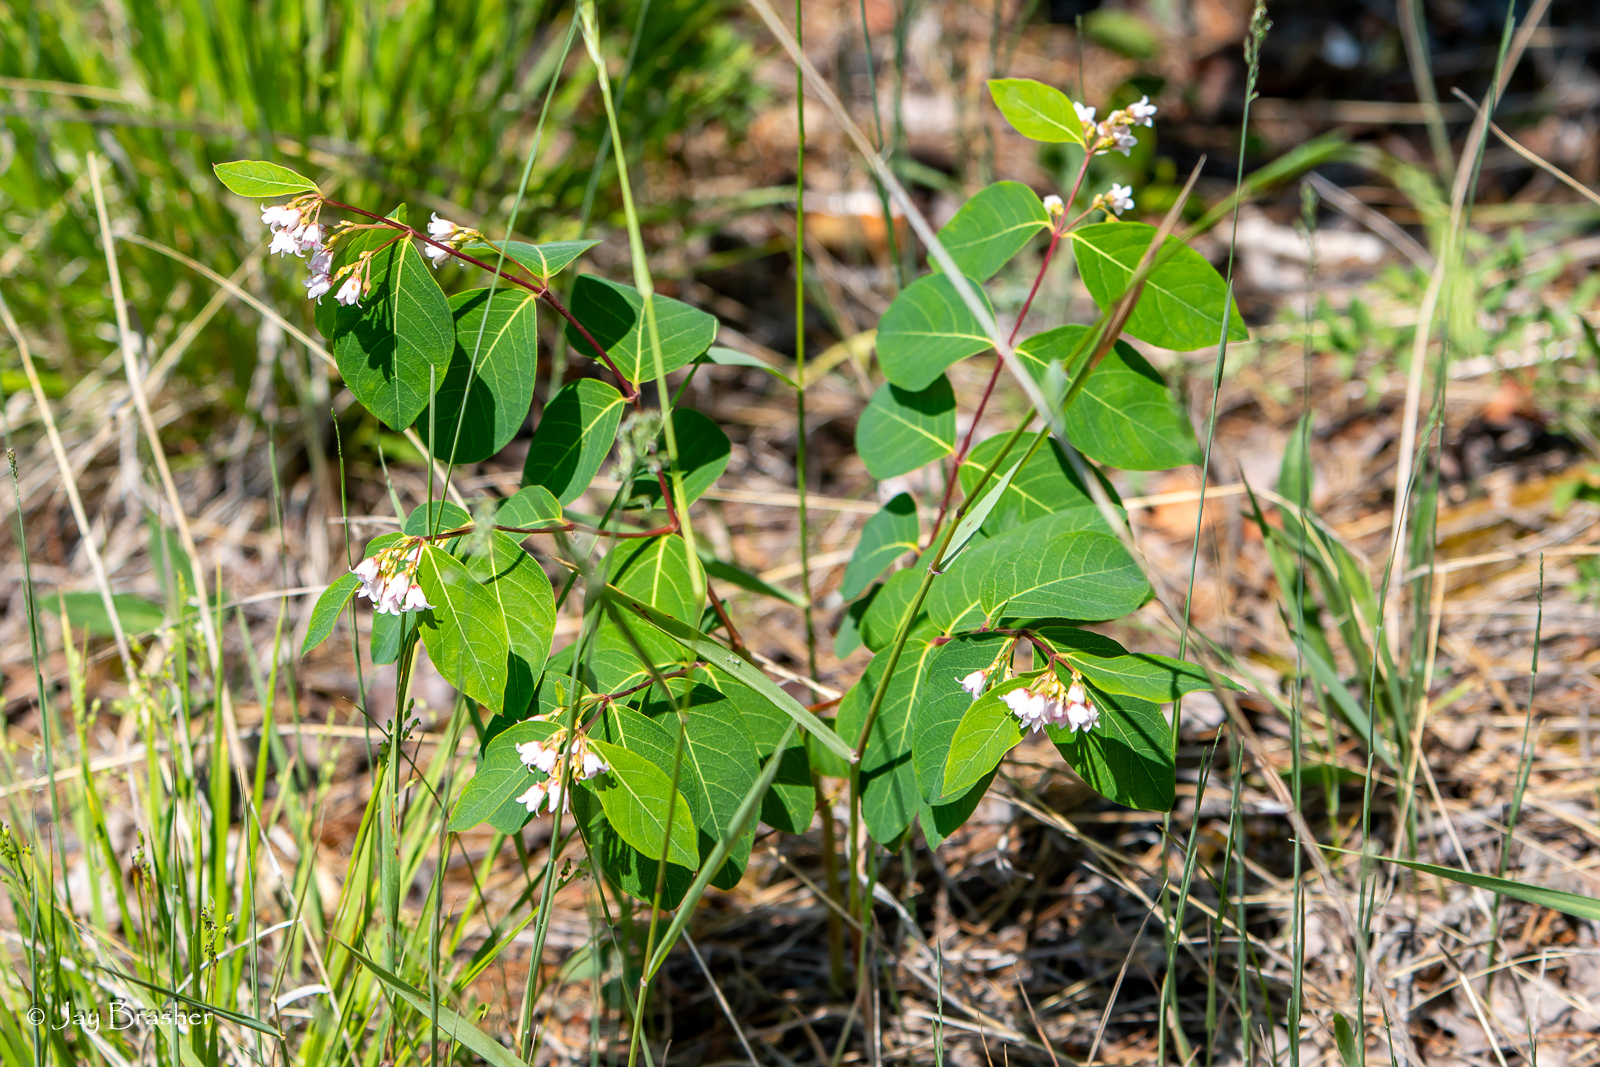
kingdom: Plantae
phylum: Tracheophyta
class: Magnoliopsida
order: Gentianales
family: Apocynaceae
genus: Apocynum
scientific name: Apocynum androsaemifolium
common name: Spreading dogbane
